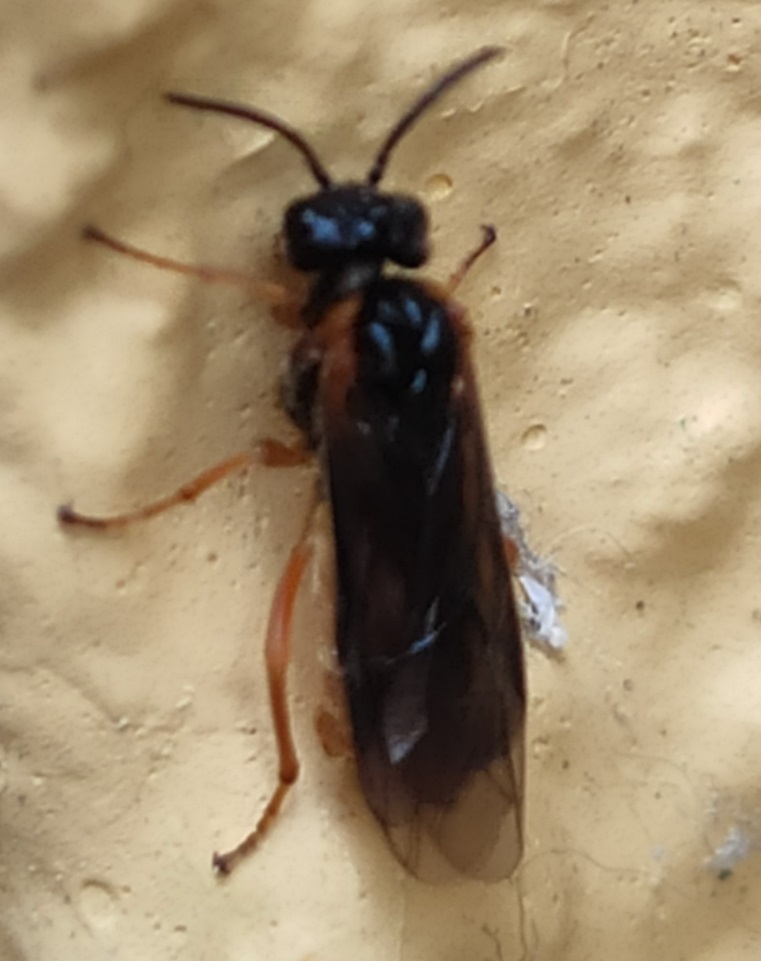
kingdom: Animalia
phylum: Arthropoda
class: Insecta
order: Hymenoptera
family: Tenthredinidae
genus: Monostegia
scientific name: Monostegia abdominalis
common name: Tenthredid wasp
